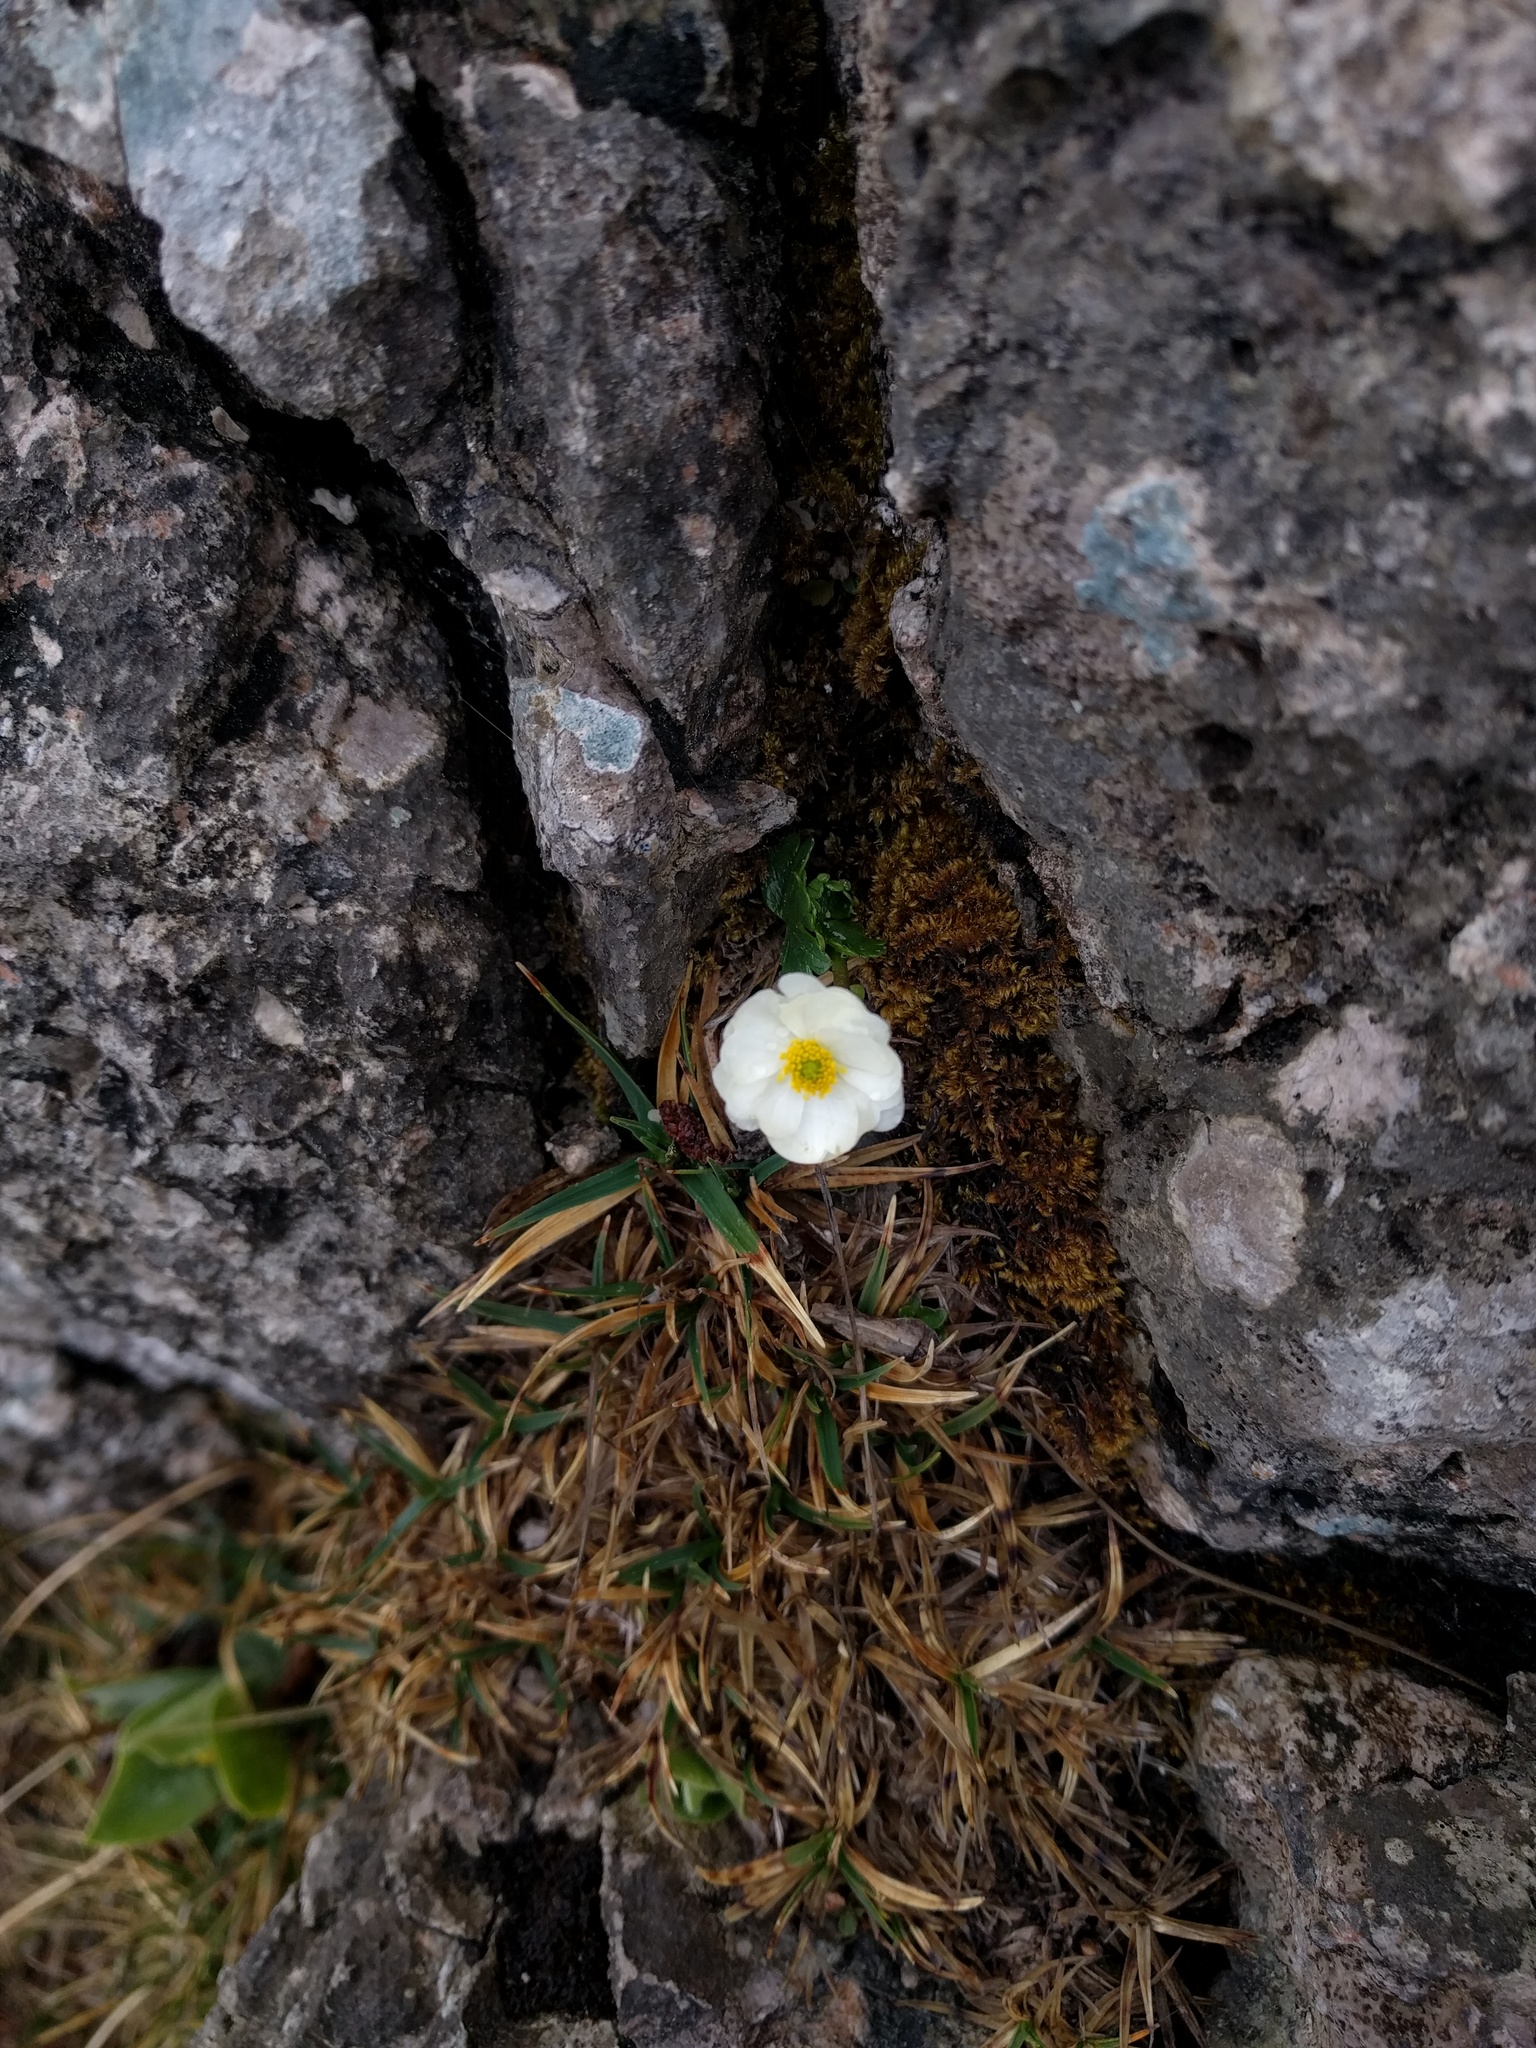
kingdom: Plantae
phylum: Tracheophyta
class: Magnoliopsida
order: Ranunculales
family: Ranunculaceae
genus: Ranunculus
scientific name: Ranunculus alpestris
